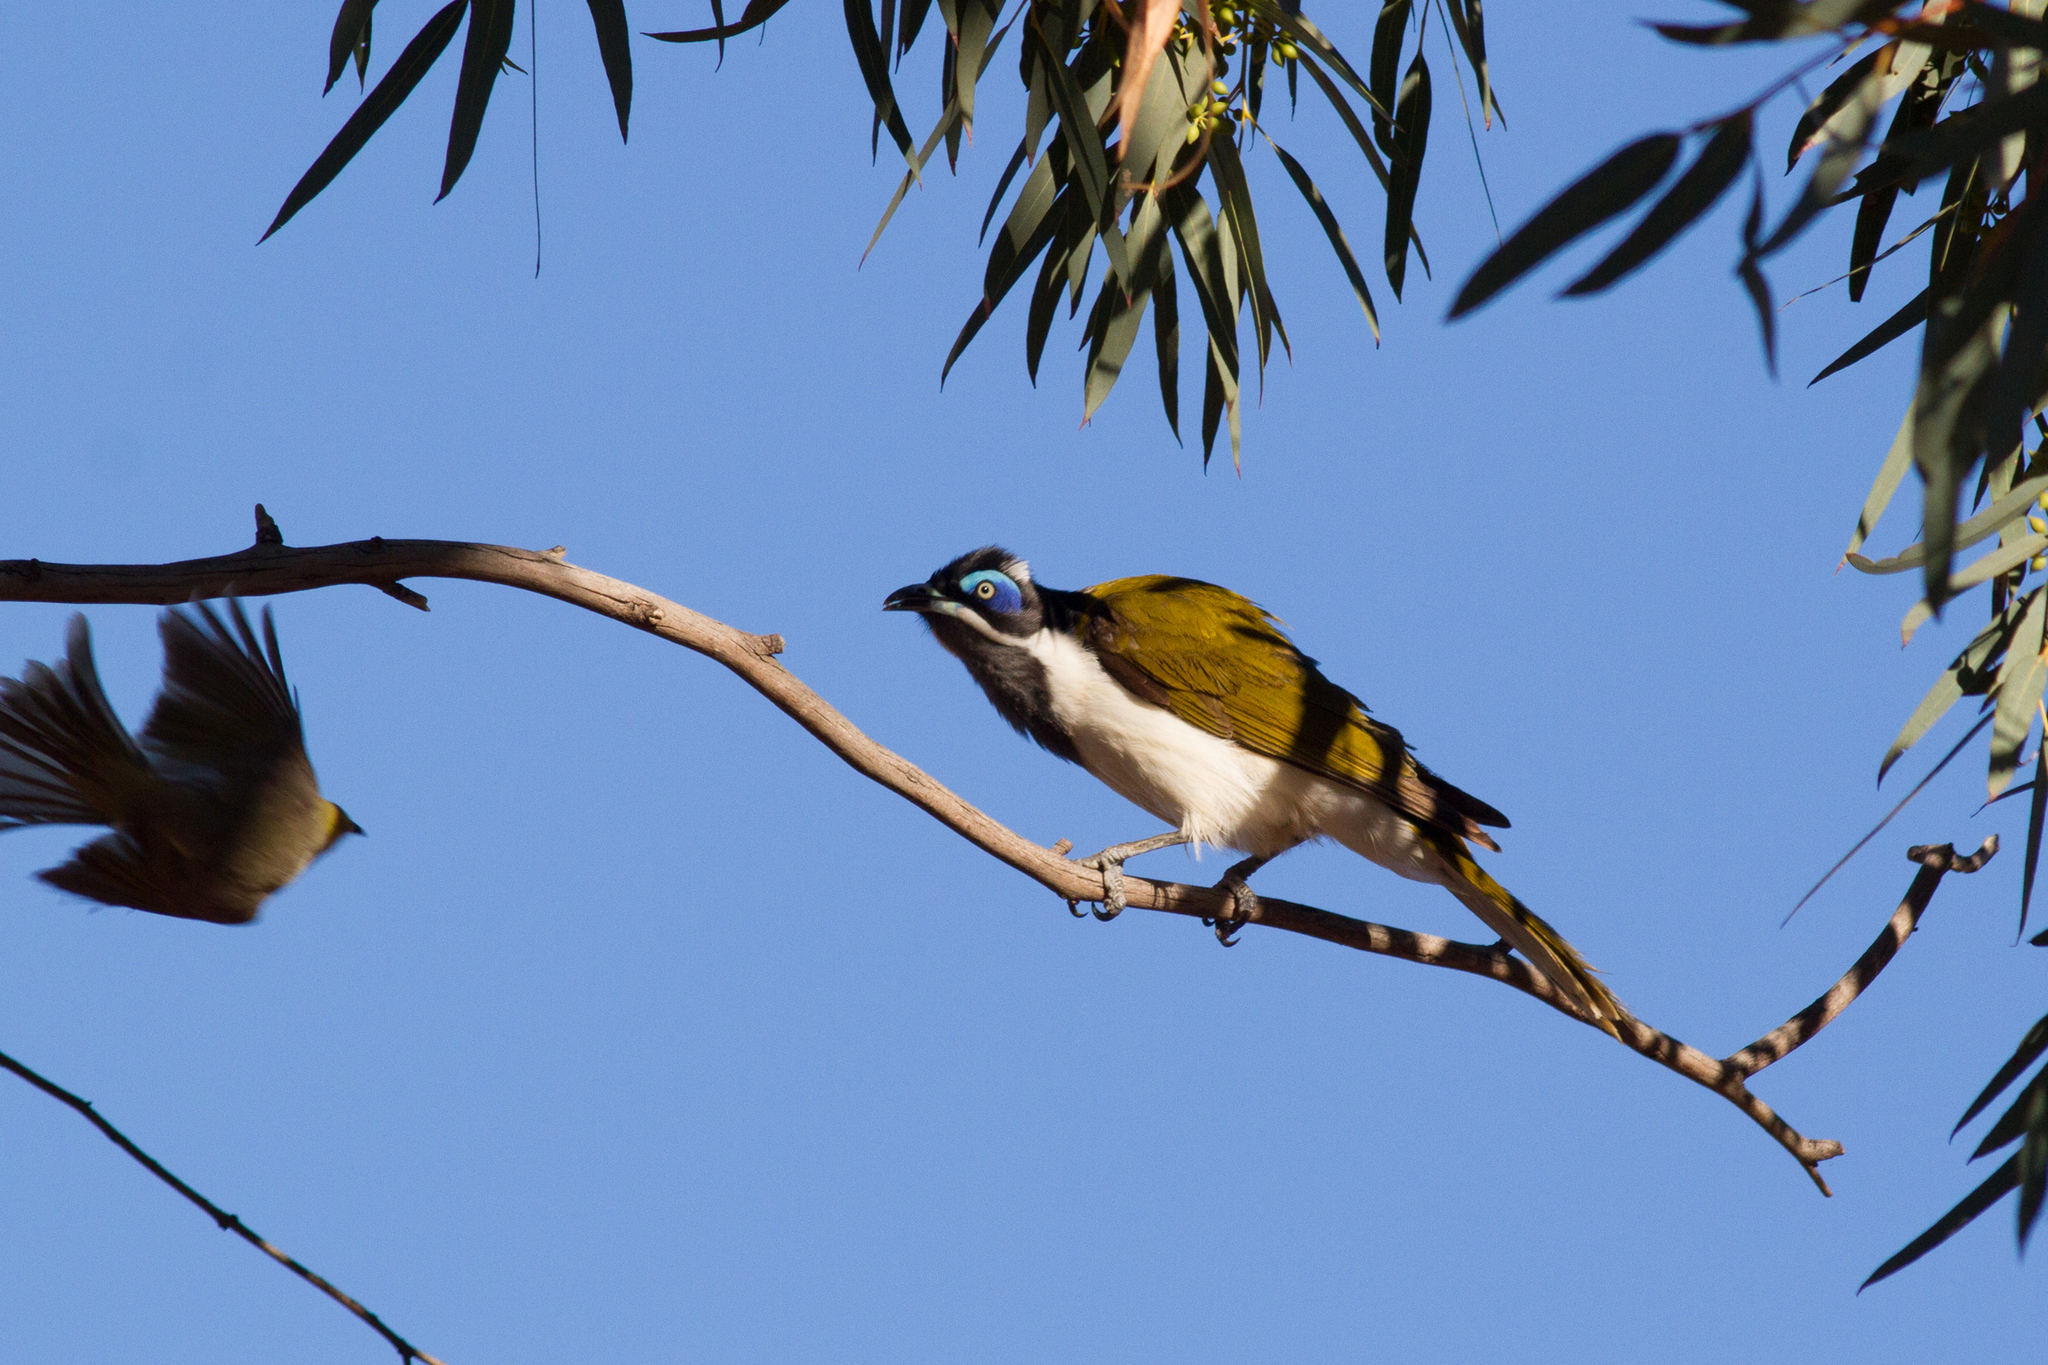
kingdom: Animalia
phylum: Chordata
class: Aves
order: Passeriformes
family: Meliphagidae
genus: Entomyzon
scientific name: Entomyzon cyanotis
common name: Blue-faced honeyeater
